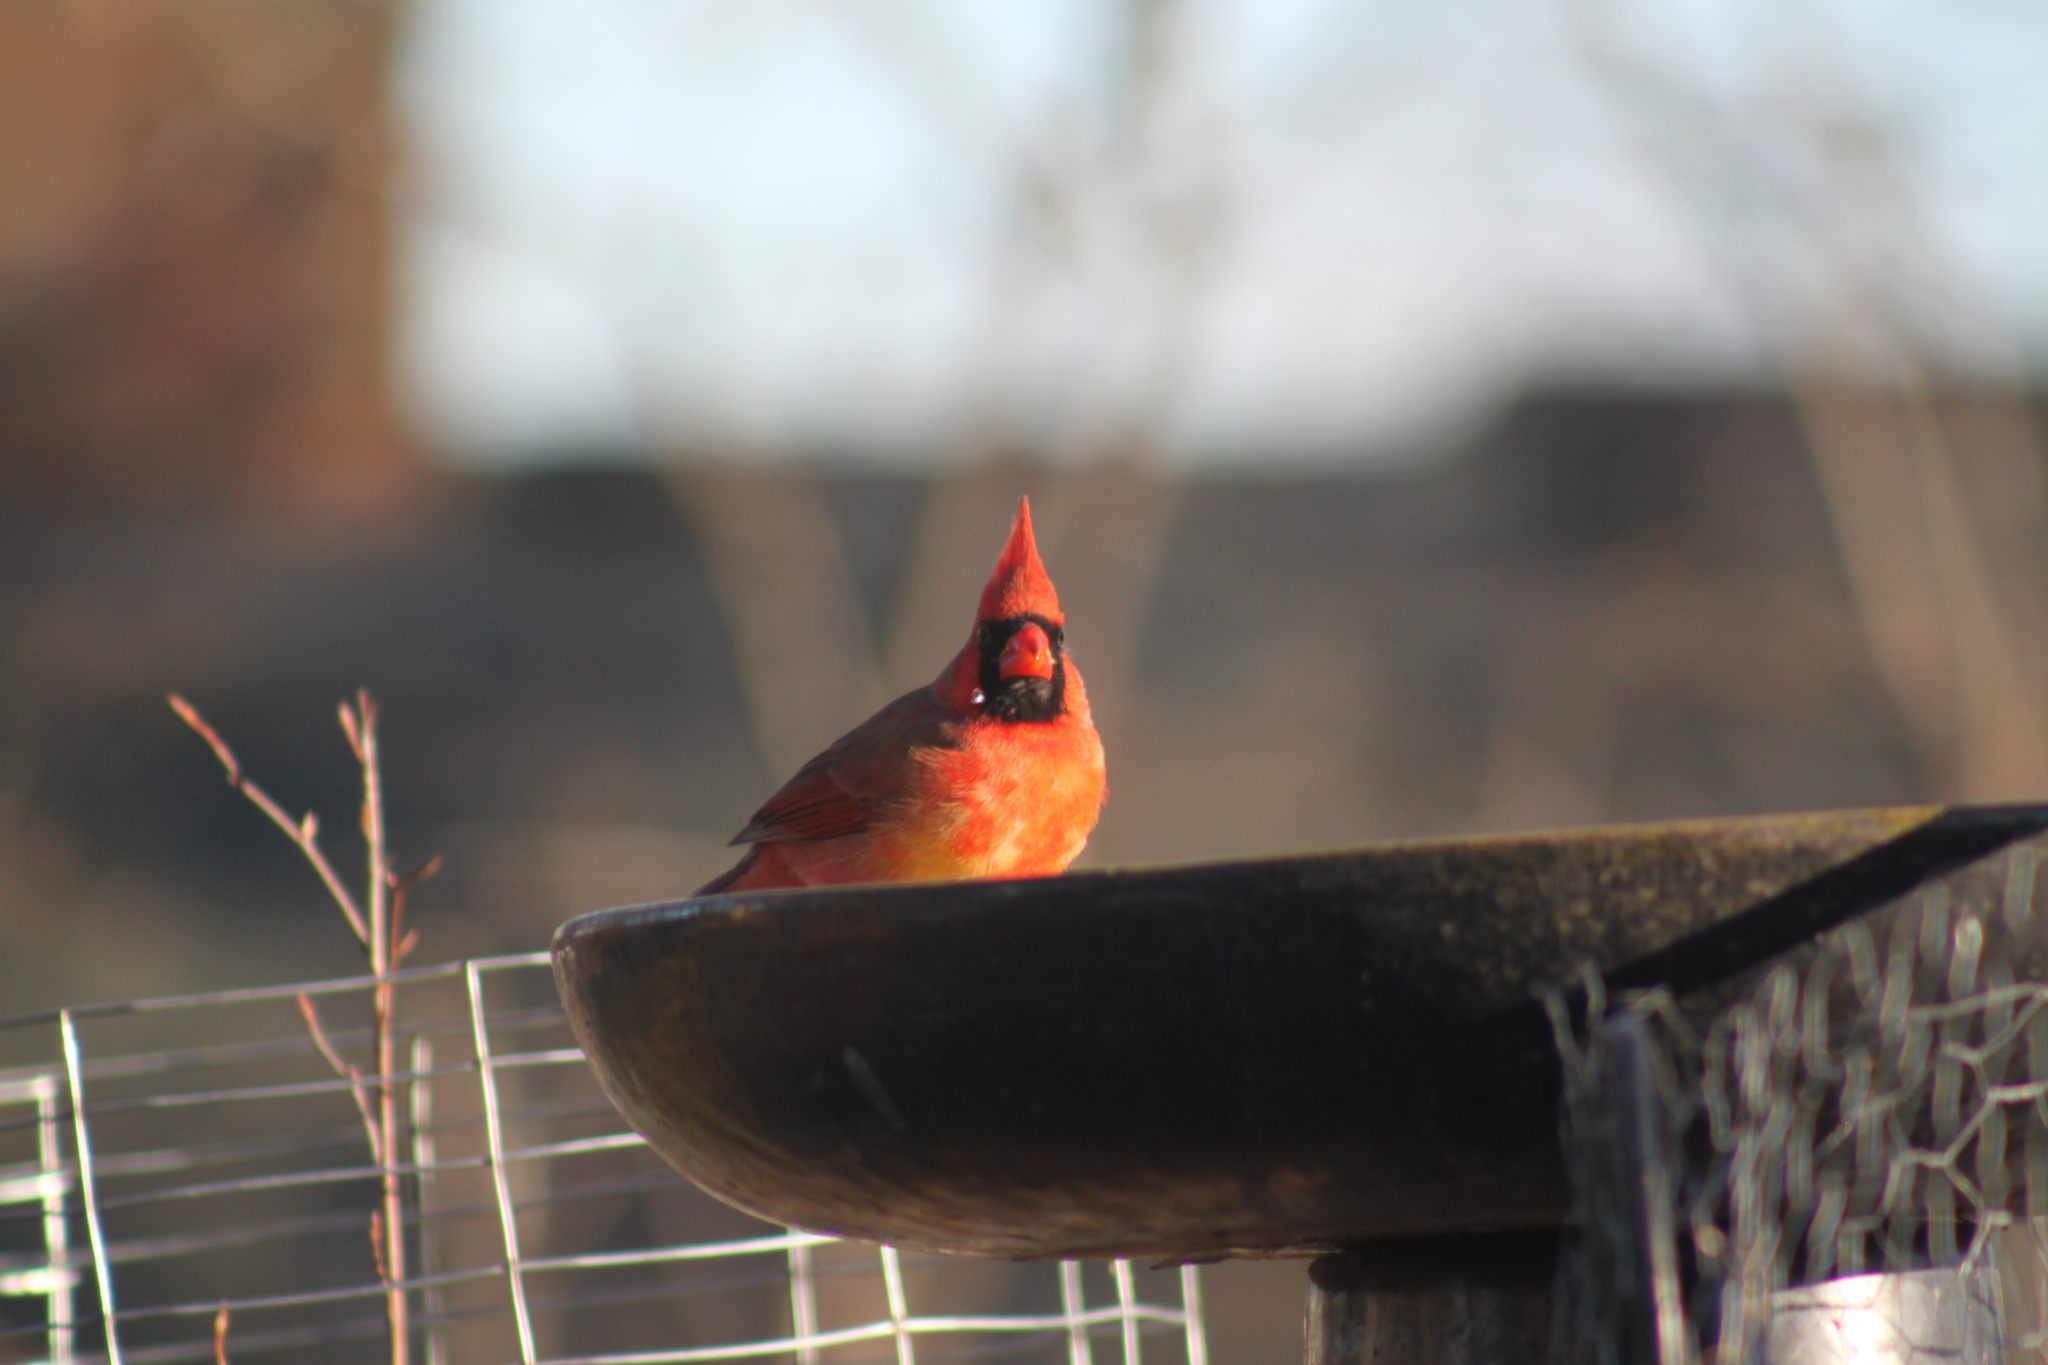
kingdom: Animalia
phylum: Chordata
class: Aves
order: Passeriformes
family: Cardinalidae
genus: Cardinalis
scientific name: Cardinalis cardinalis
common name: Northern cardinal
